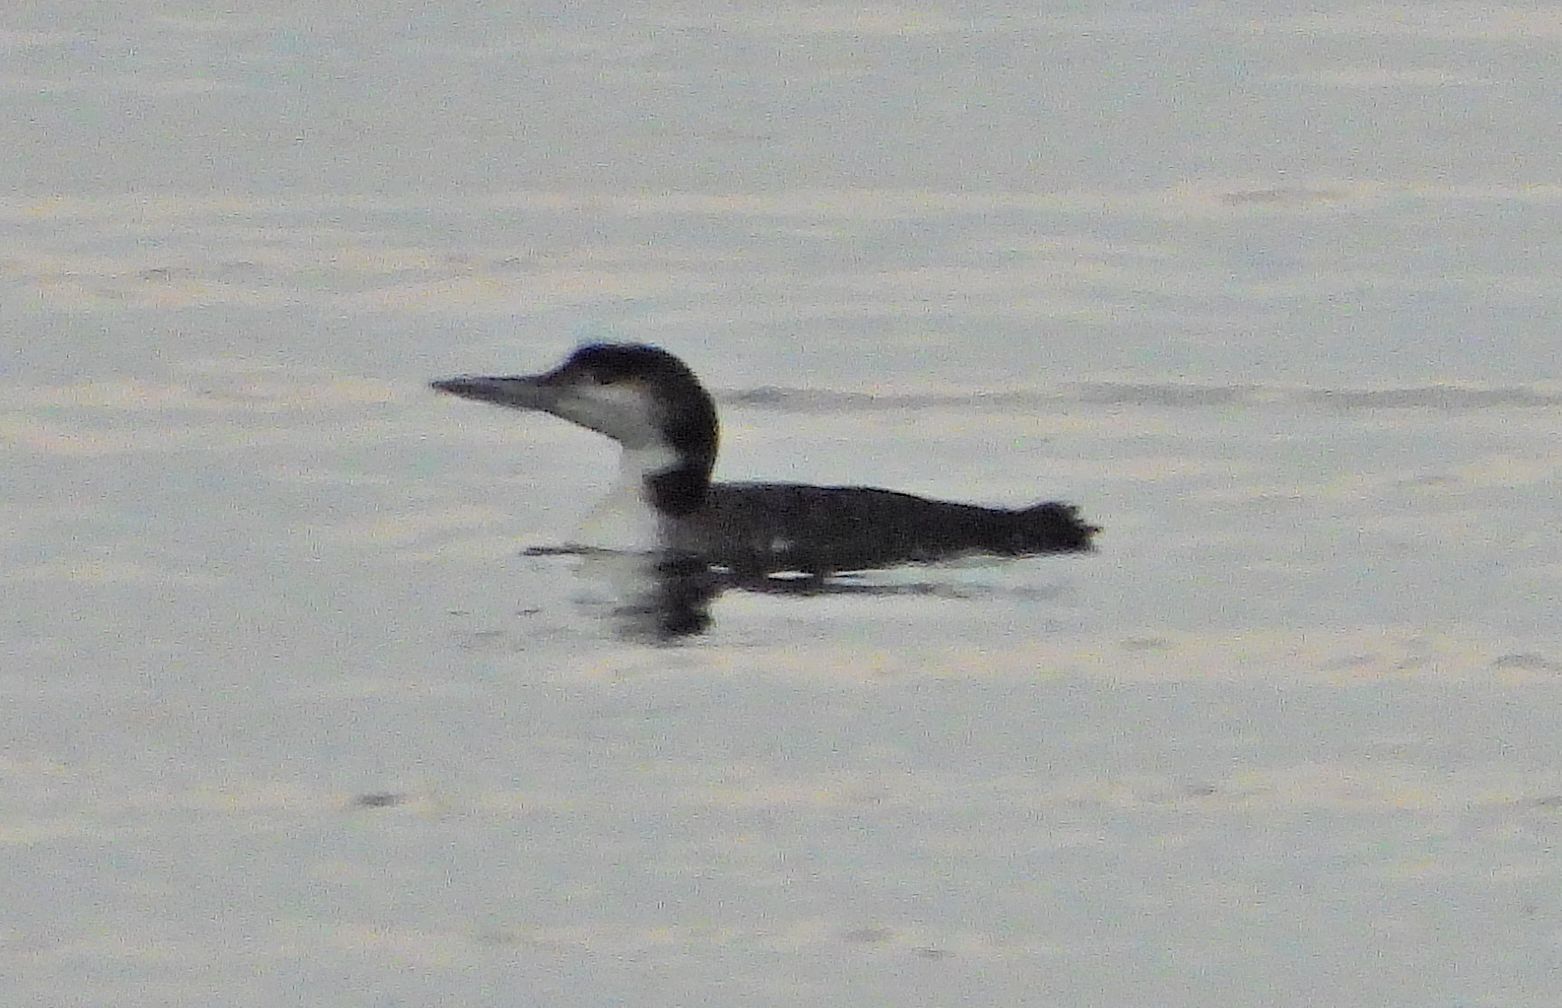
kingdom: Animalia
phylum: Chordata
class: Aves
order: Gaviiformes
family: Gaviidae
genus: Gavia
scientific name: Gavia immer
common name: Common loon
